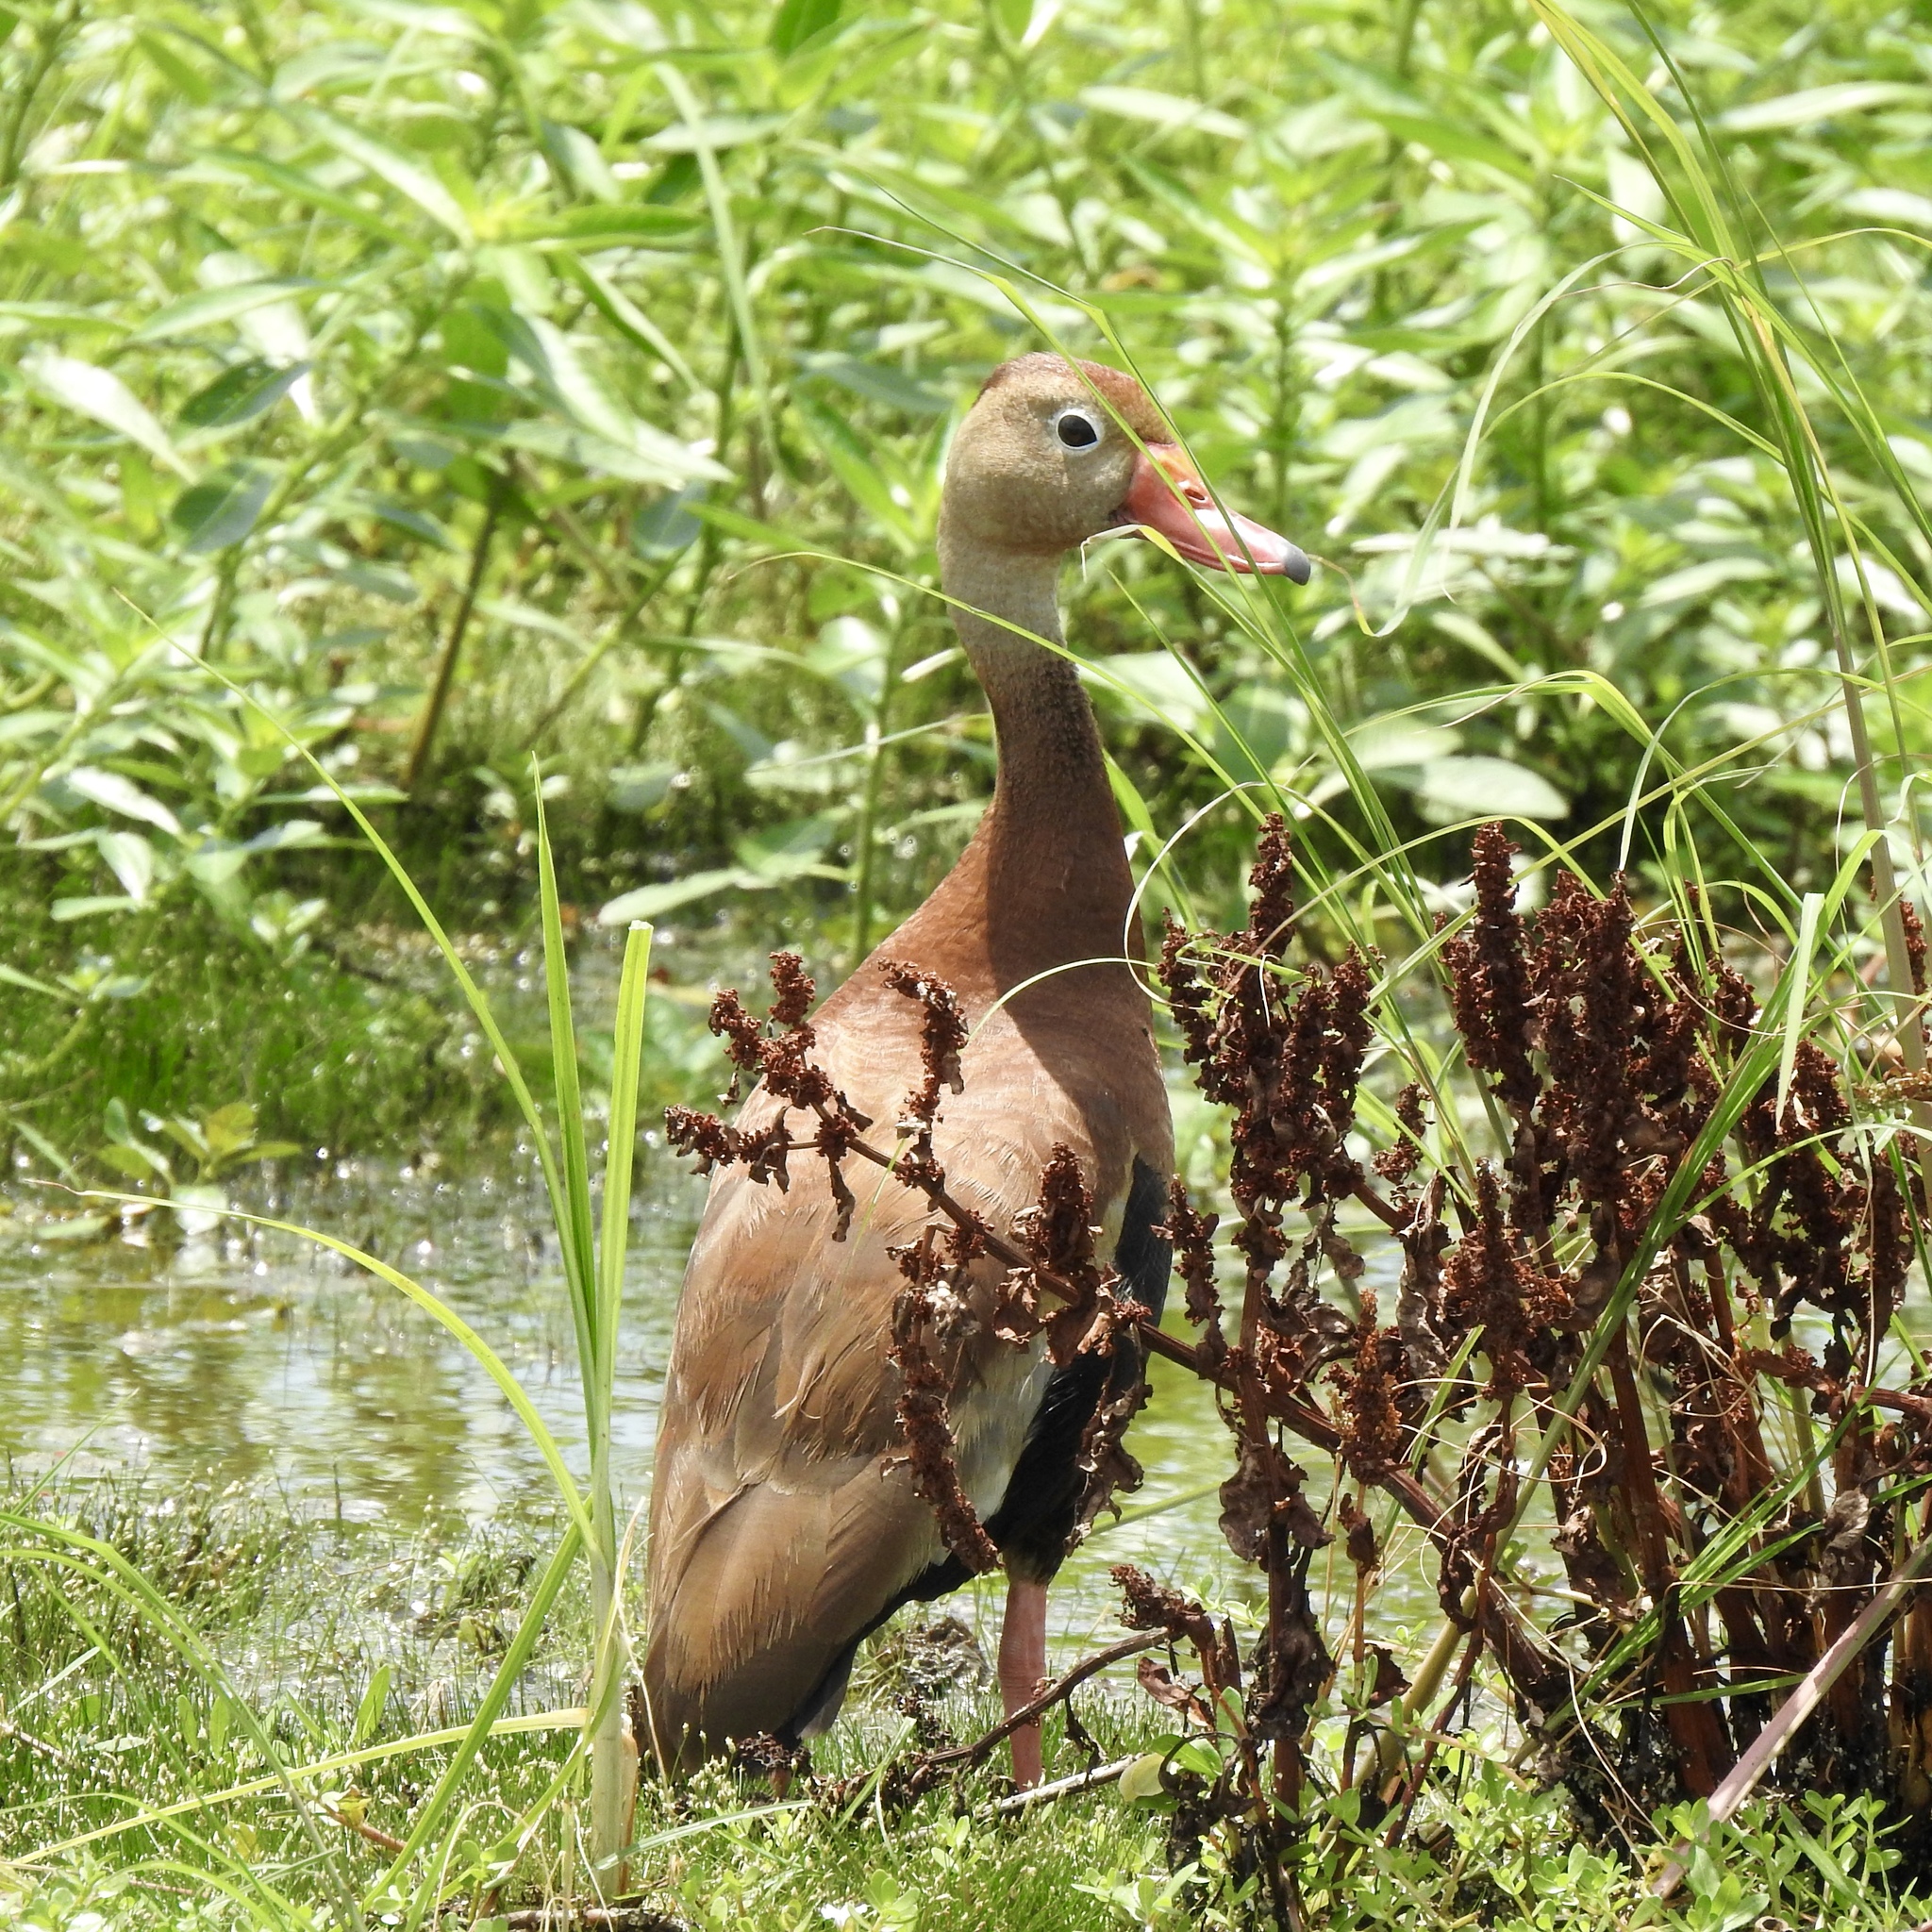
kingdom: Animalia
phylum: Chordata
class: Aves
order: Anseriformes
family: Anatidae
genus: Dendrocygna
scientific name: Dendrocygna autumnalis
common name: Black-bellied whistling duck
